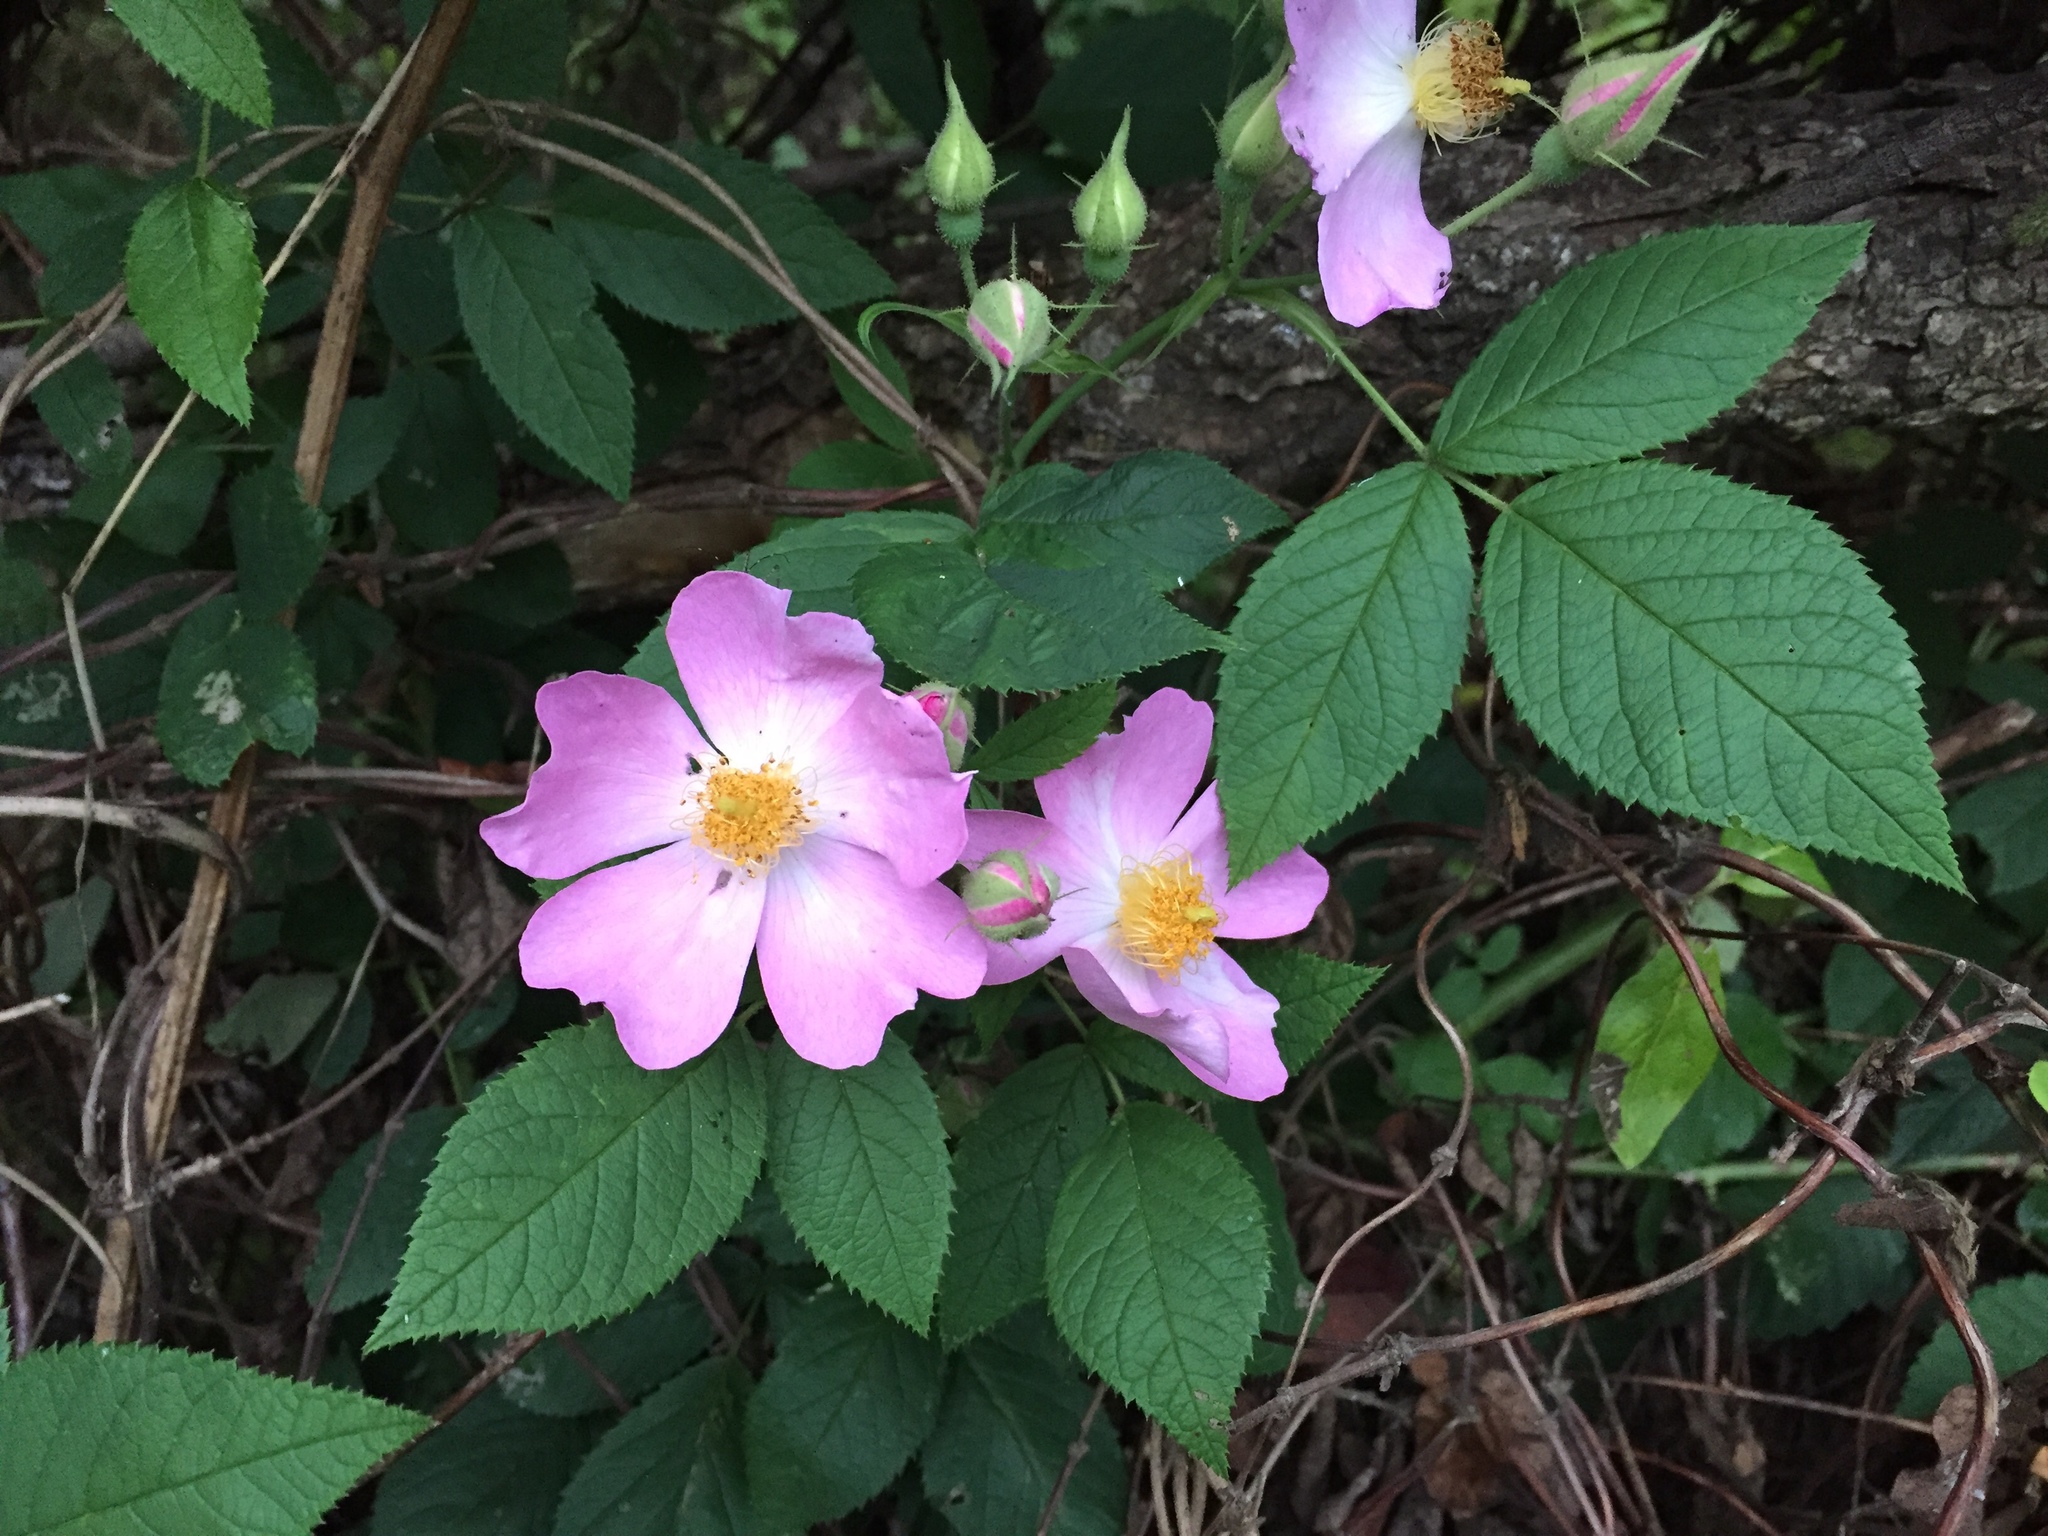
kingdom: Plantae
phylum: Tracheophyta
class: Magnoliopsida
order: Rosales
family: Rosaceae
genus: Rosa
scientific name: Rosa setigera
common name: Prairie rose
